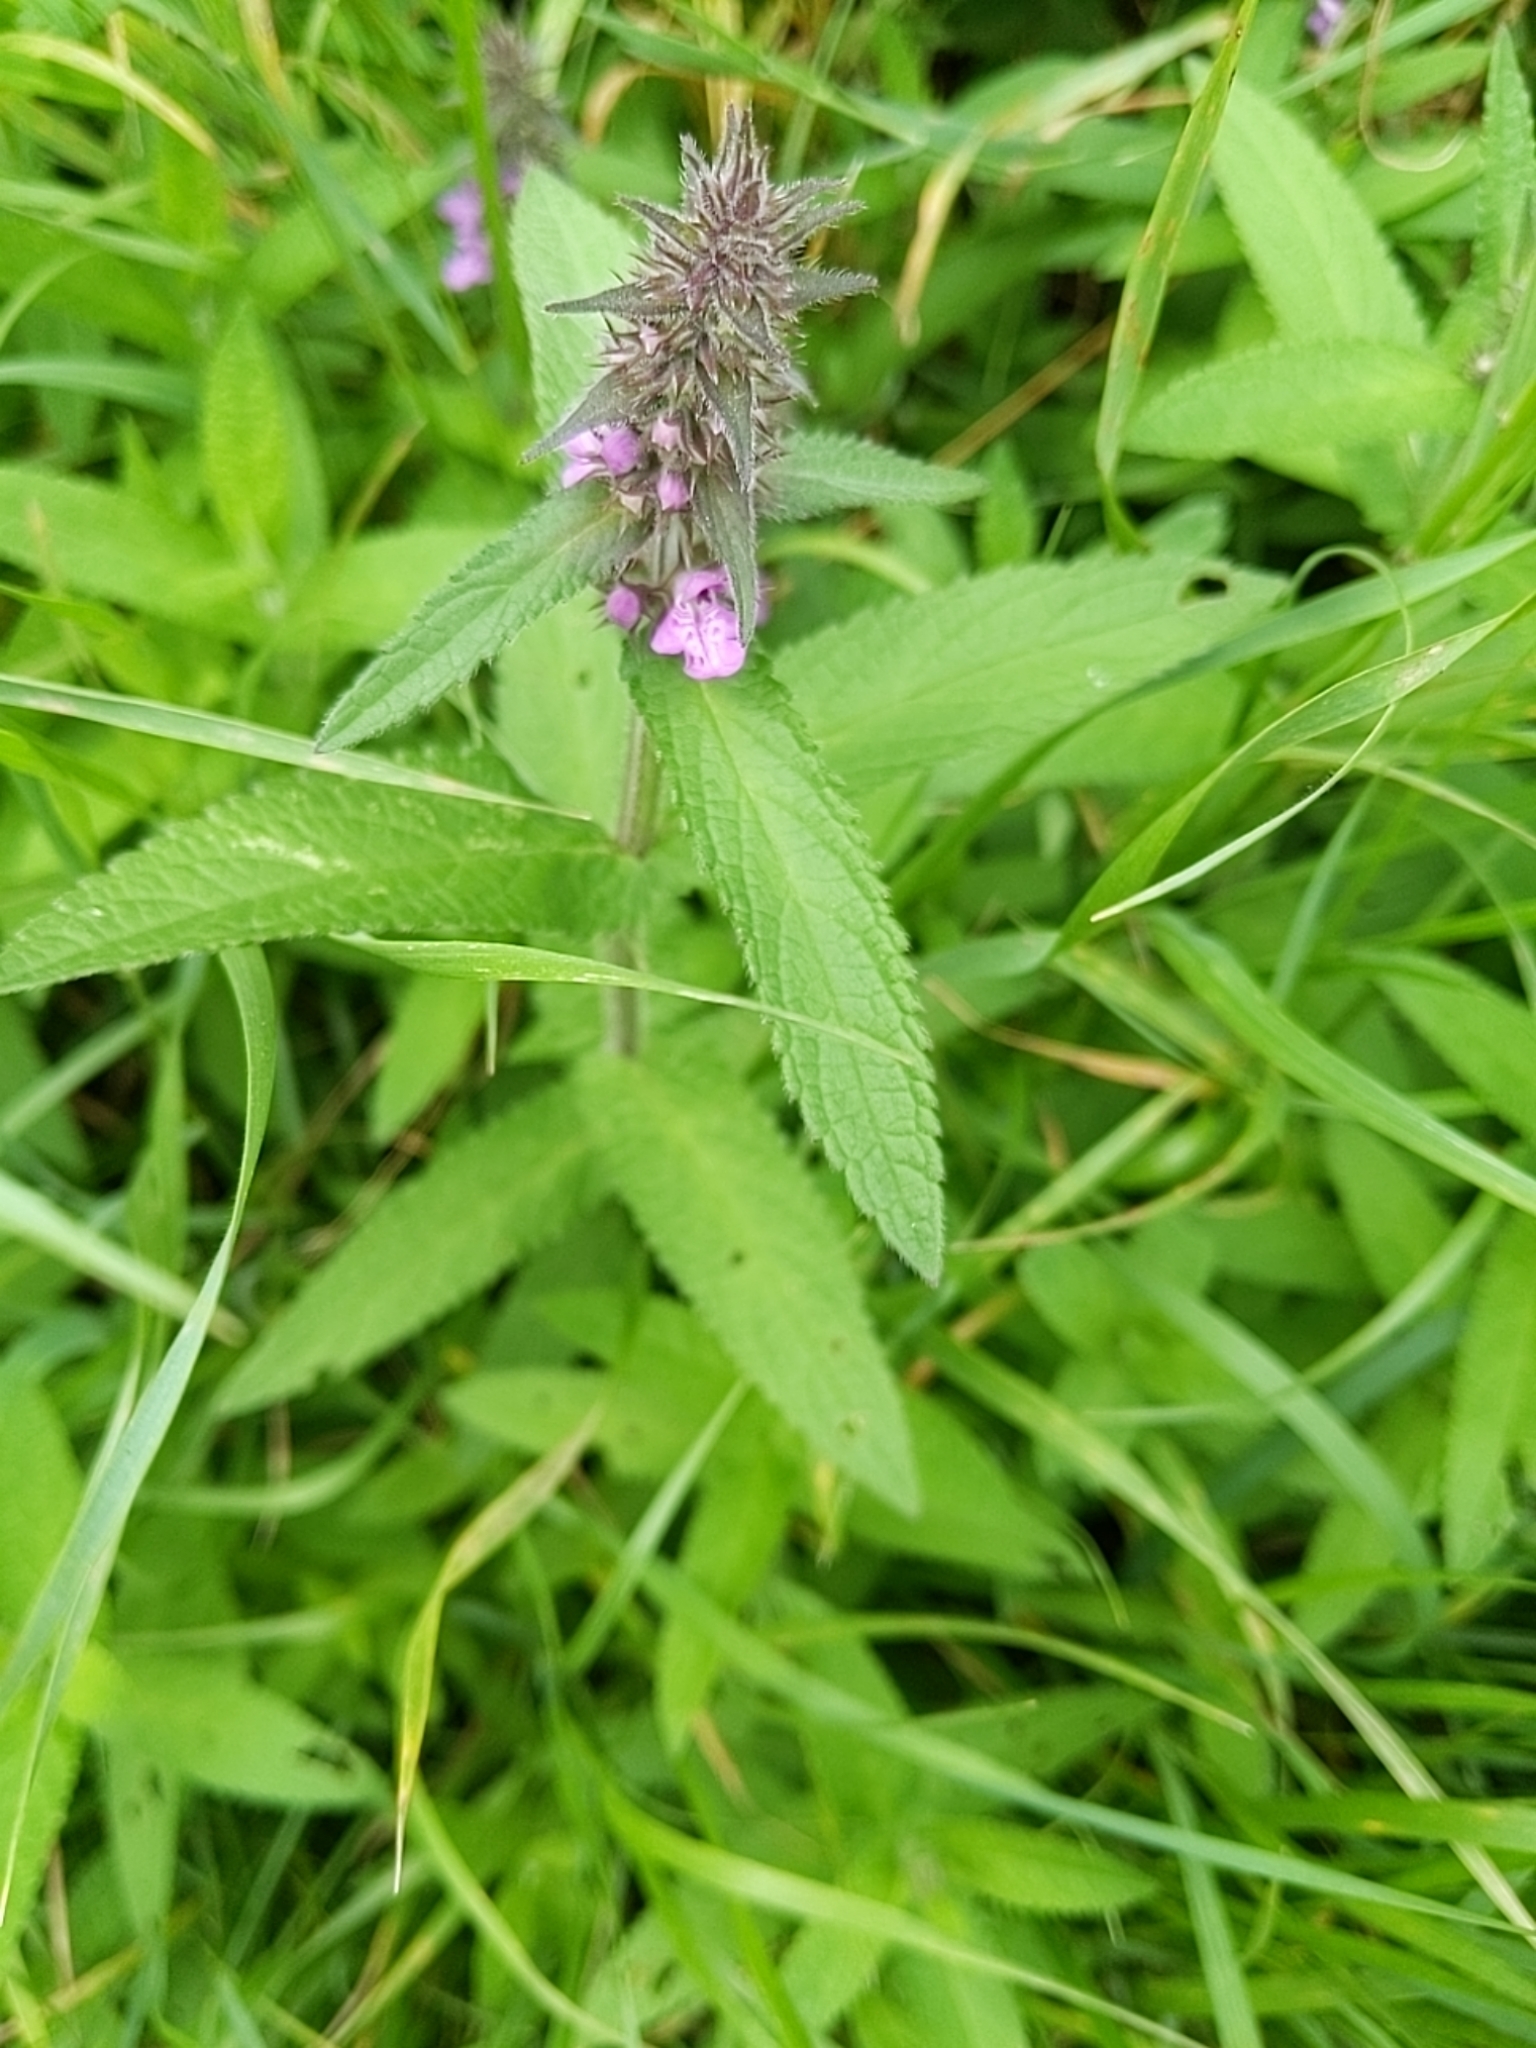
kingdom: Plantae
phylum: Tracheophyta
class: Magnoliopsida
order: Lamiales
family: Lamiaceae
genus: Stachys
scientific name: Stachys palustris
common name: Marsh woundwort
